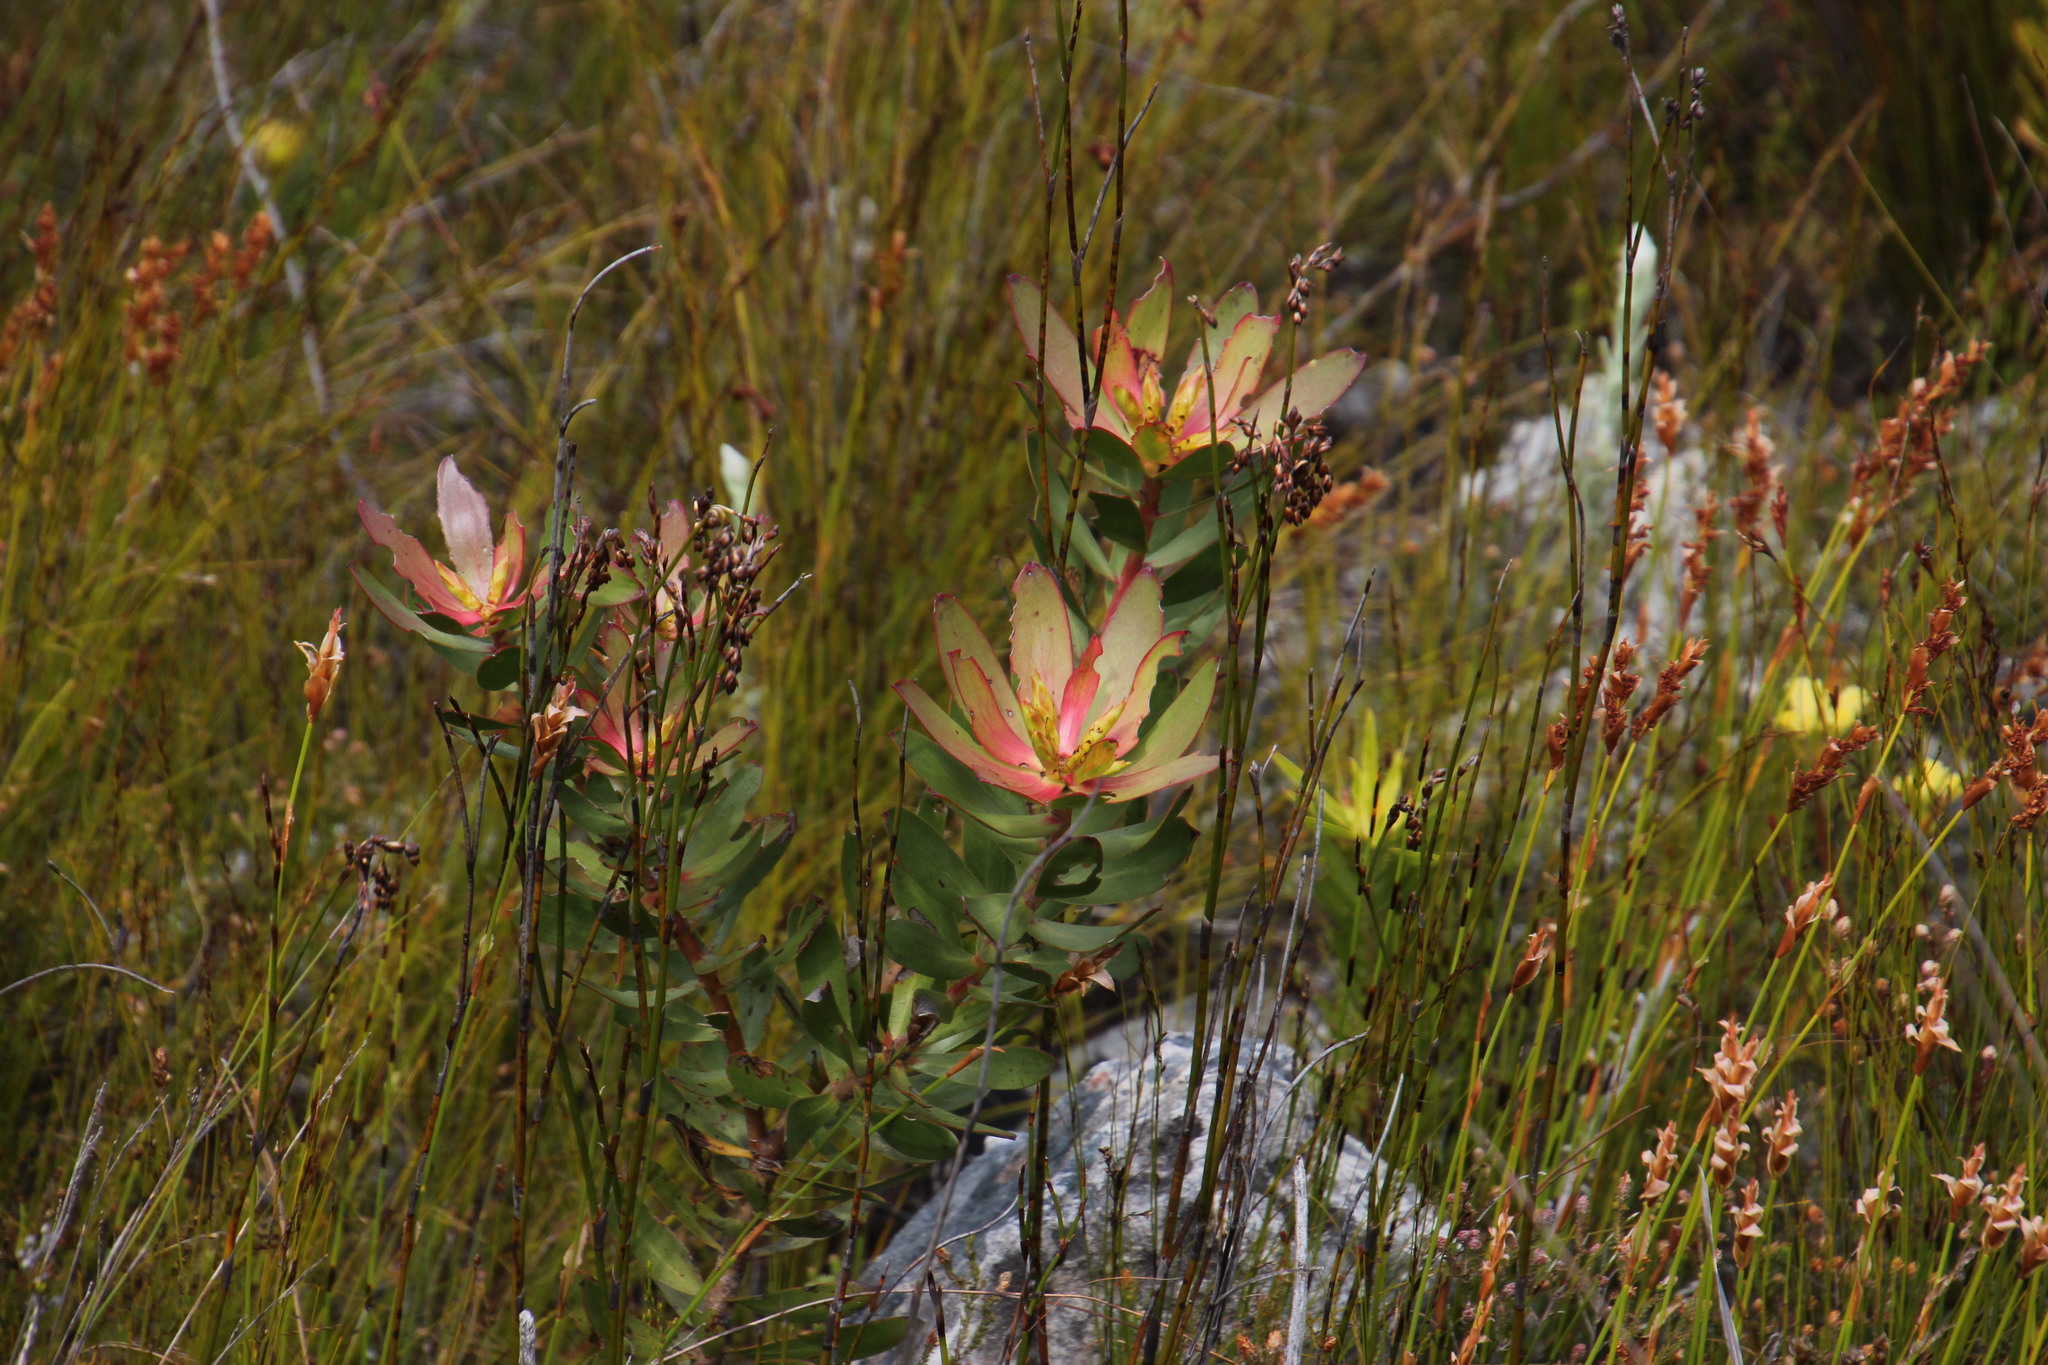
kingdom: Plantae
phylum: Tracheophyta
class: Magnoliopsida
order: Proteales
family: Proteaceae
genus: Leucadendron
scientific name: Leucadendron gandogeri
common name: Broad-leaf conebush
